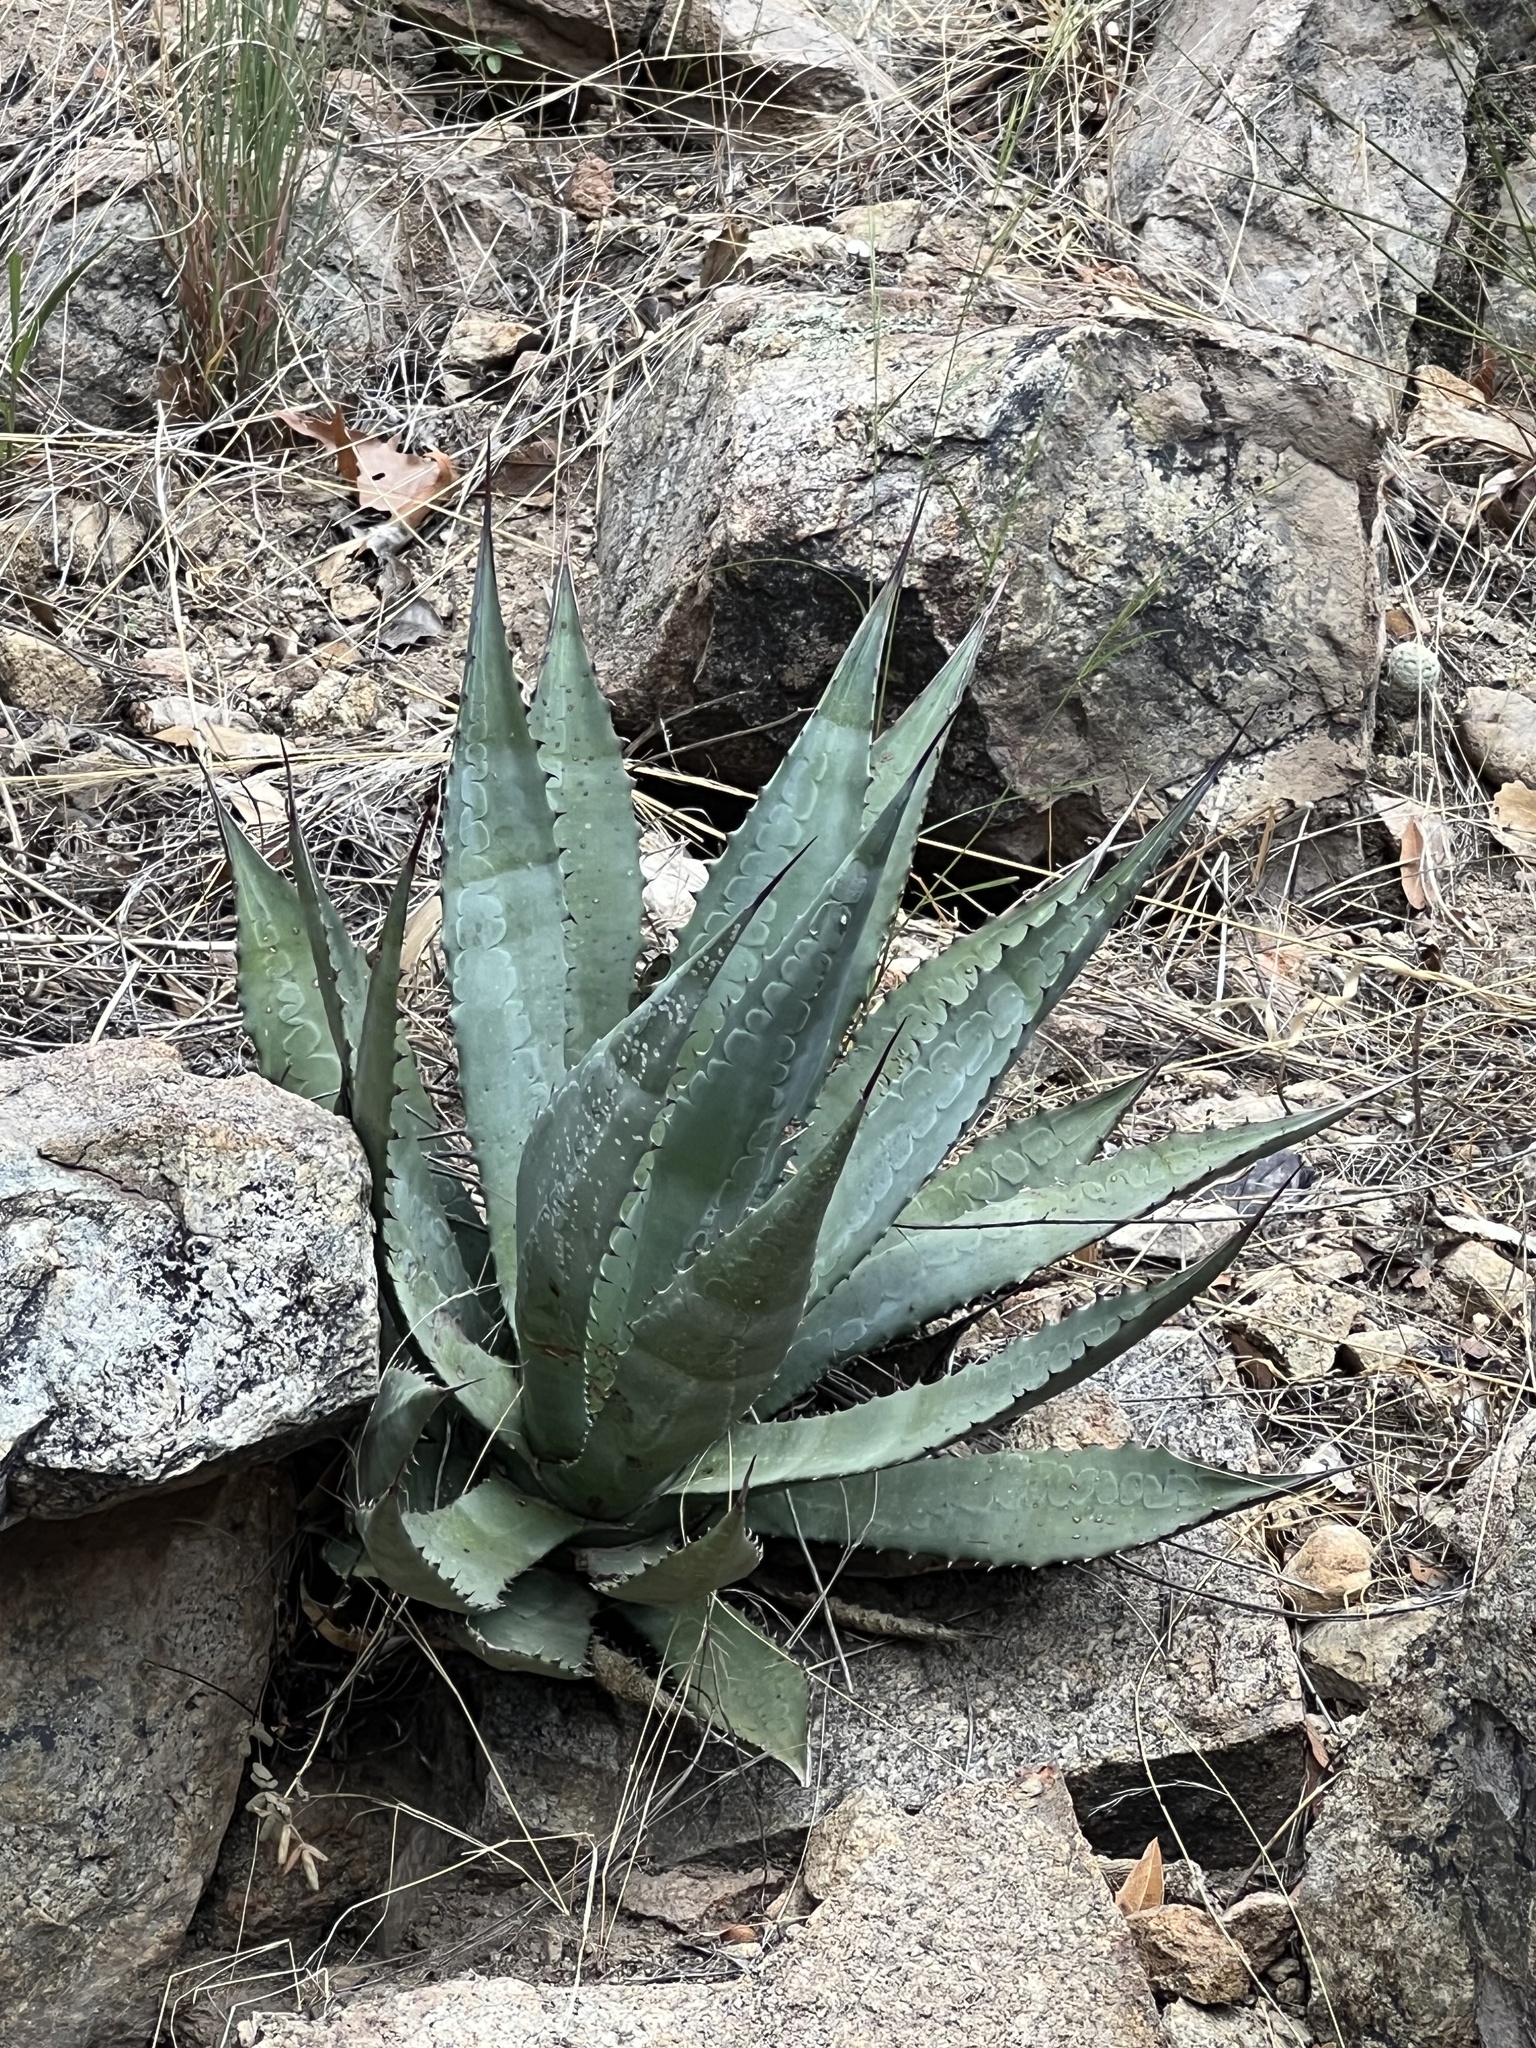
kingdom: Plantae
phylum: Tracheophyta
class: Liliopsida
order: Asparagales
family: Asparagaceae
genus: Agave
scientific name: Agave palmeri
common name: Palmer agave
